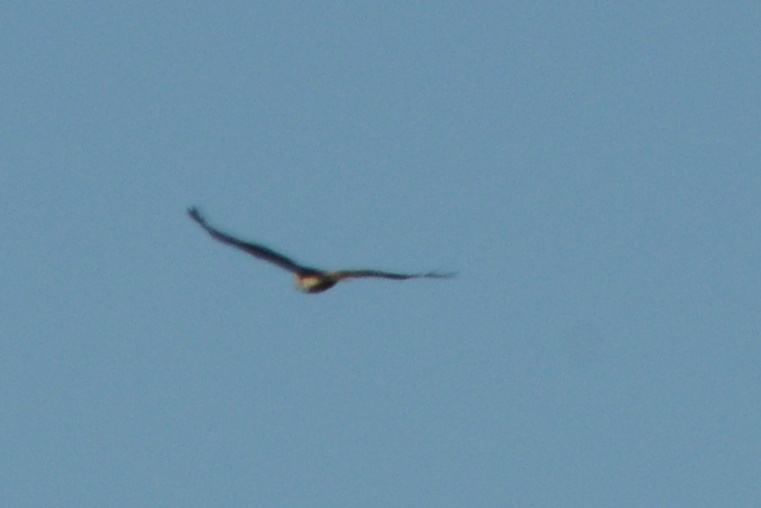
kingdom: Animalia
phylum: Chordata
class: Aves
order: Accipitriformes
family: Accipitridae
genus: Buteo
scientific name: Buteo jamaicensis
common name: Red-tailed hawk
